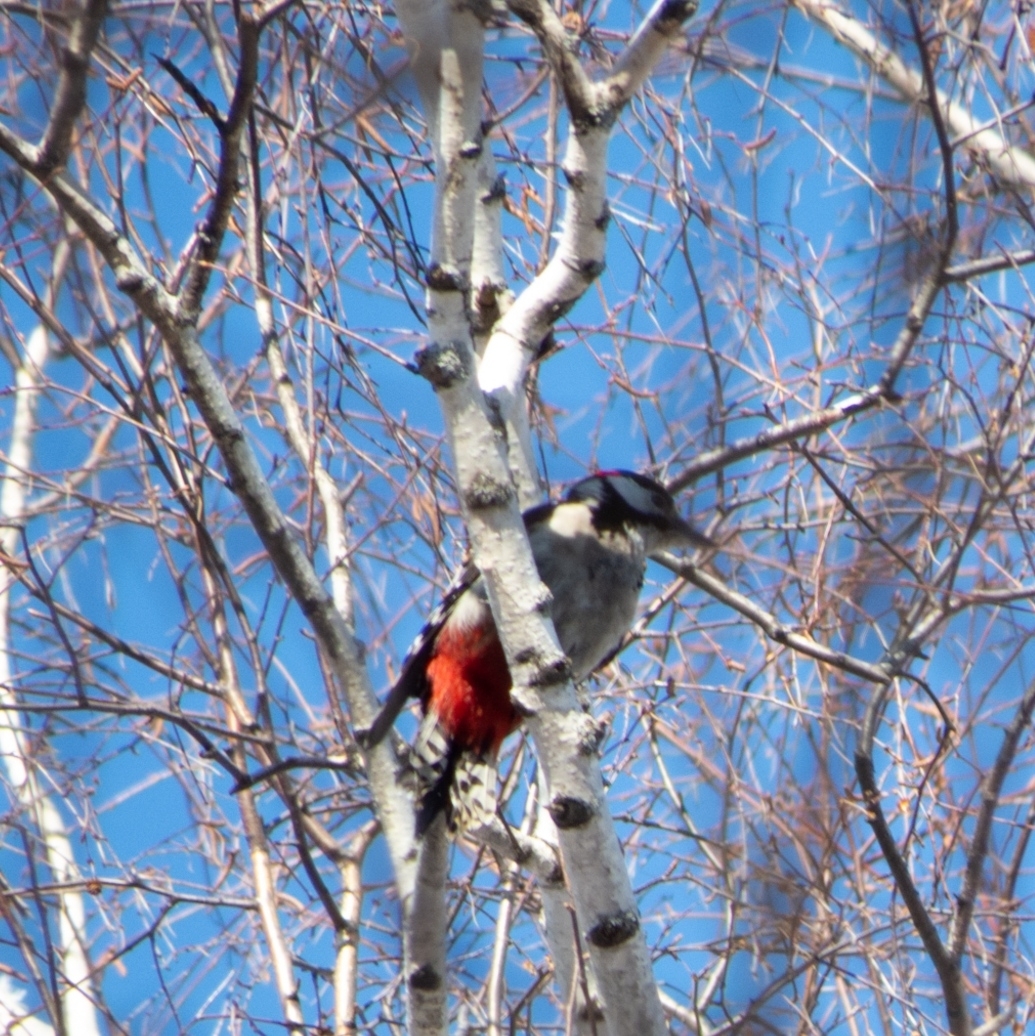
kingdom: Animalia
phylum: Chordata
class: Aves
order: Piciformes
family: Picidae
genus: Dendrocopos
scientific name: Dendrocopos major
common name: Great spotted woodpecker
